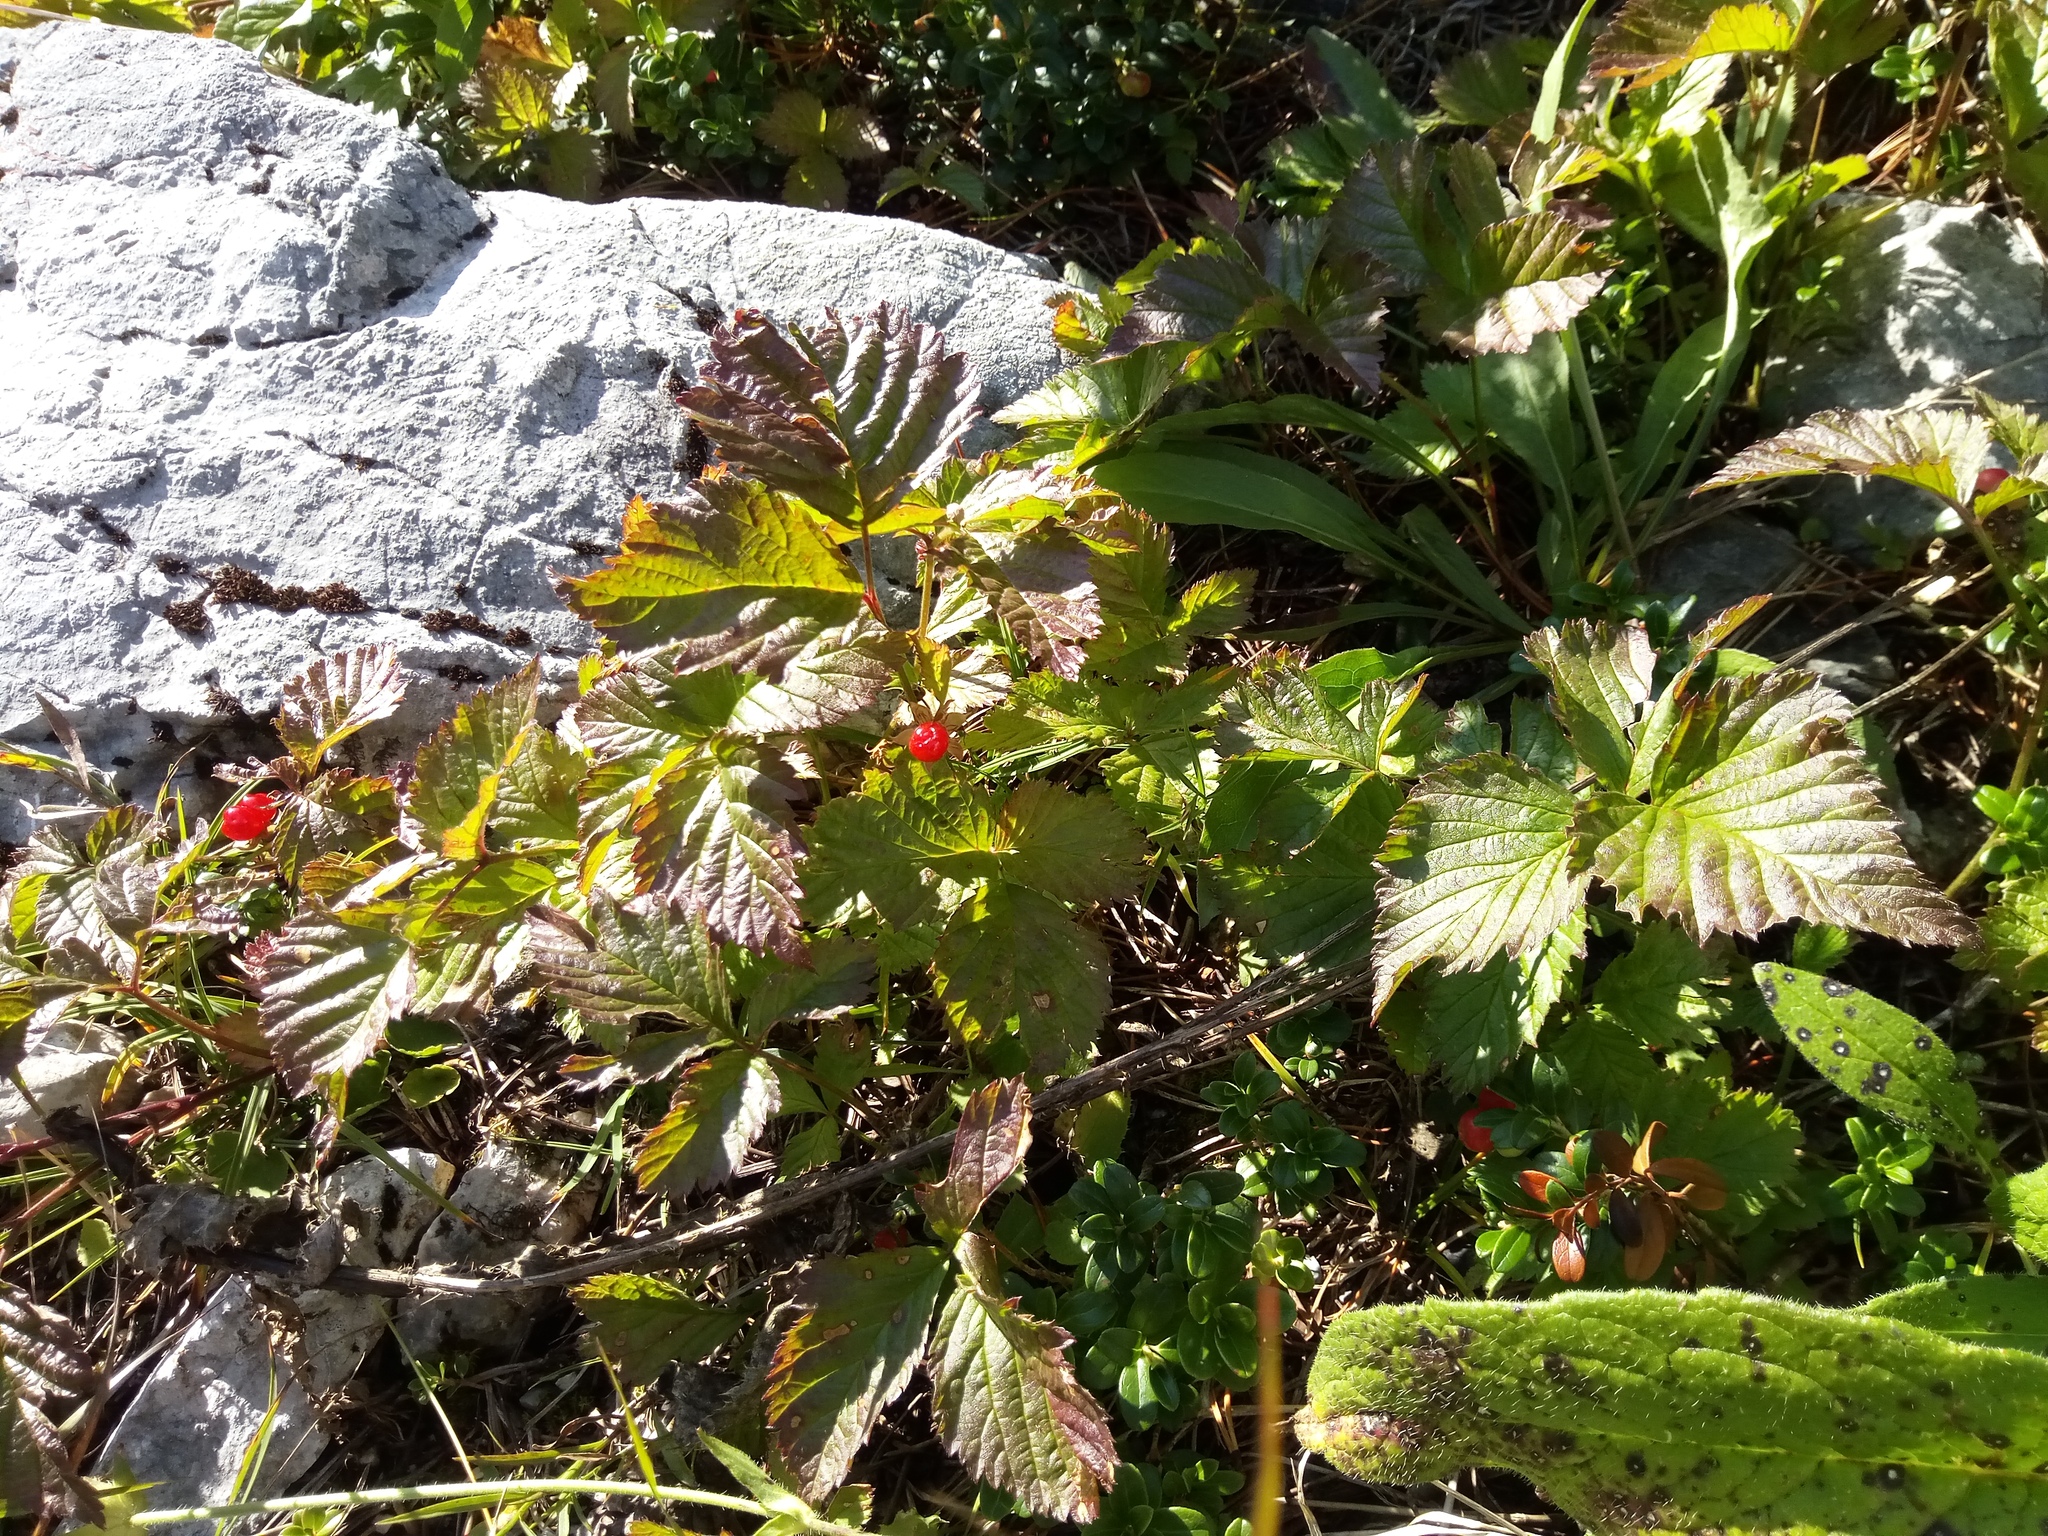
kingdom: Plantae
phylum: Tracheophyta
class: Magnoliopsida
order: Rosales
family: Rosaceae
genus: Rubus
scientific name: Rubus saxatilis
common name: Stone bramble
